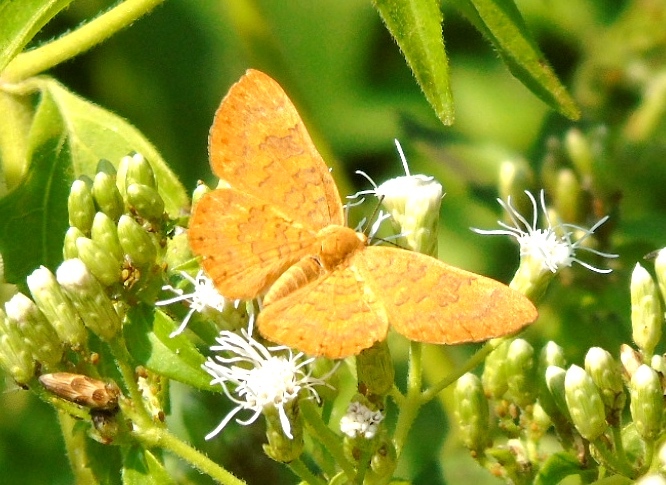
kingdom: Animalia
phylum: Arthropoda
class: Insecta
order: Lepidoptera
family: Lycaenidae
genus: Emesis
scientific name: Emesis
